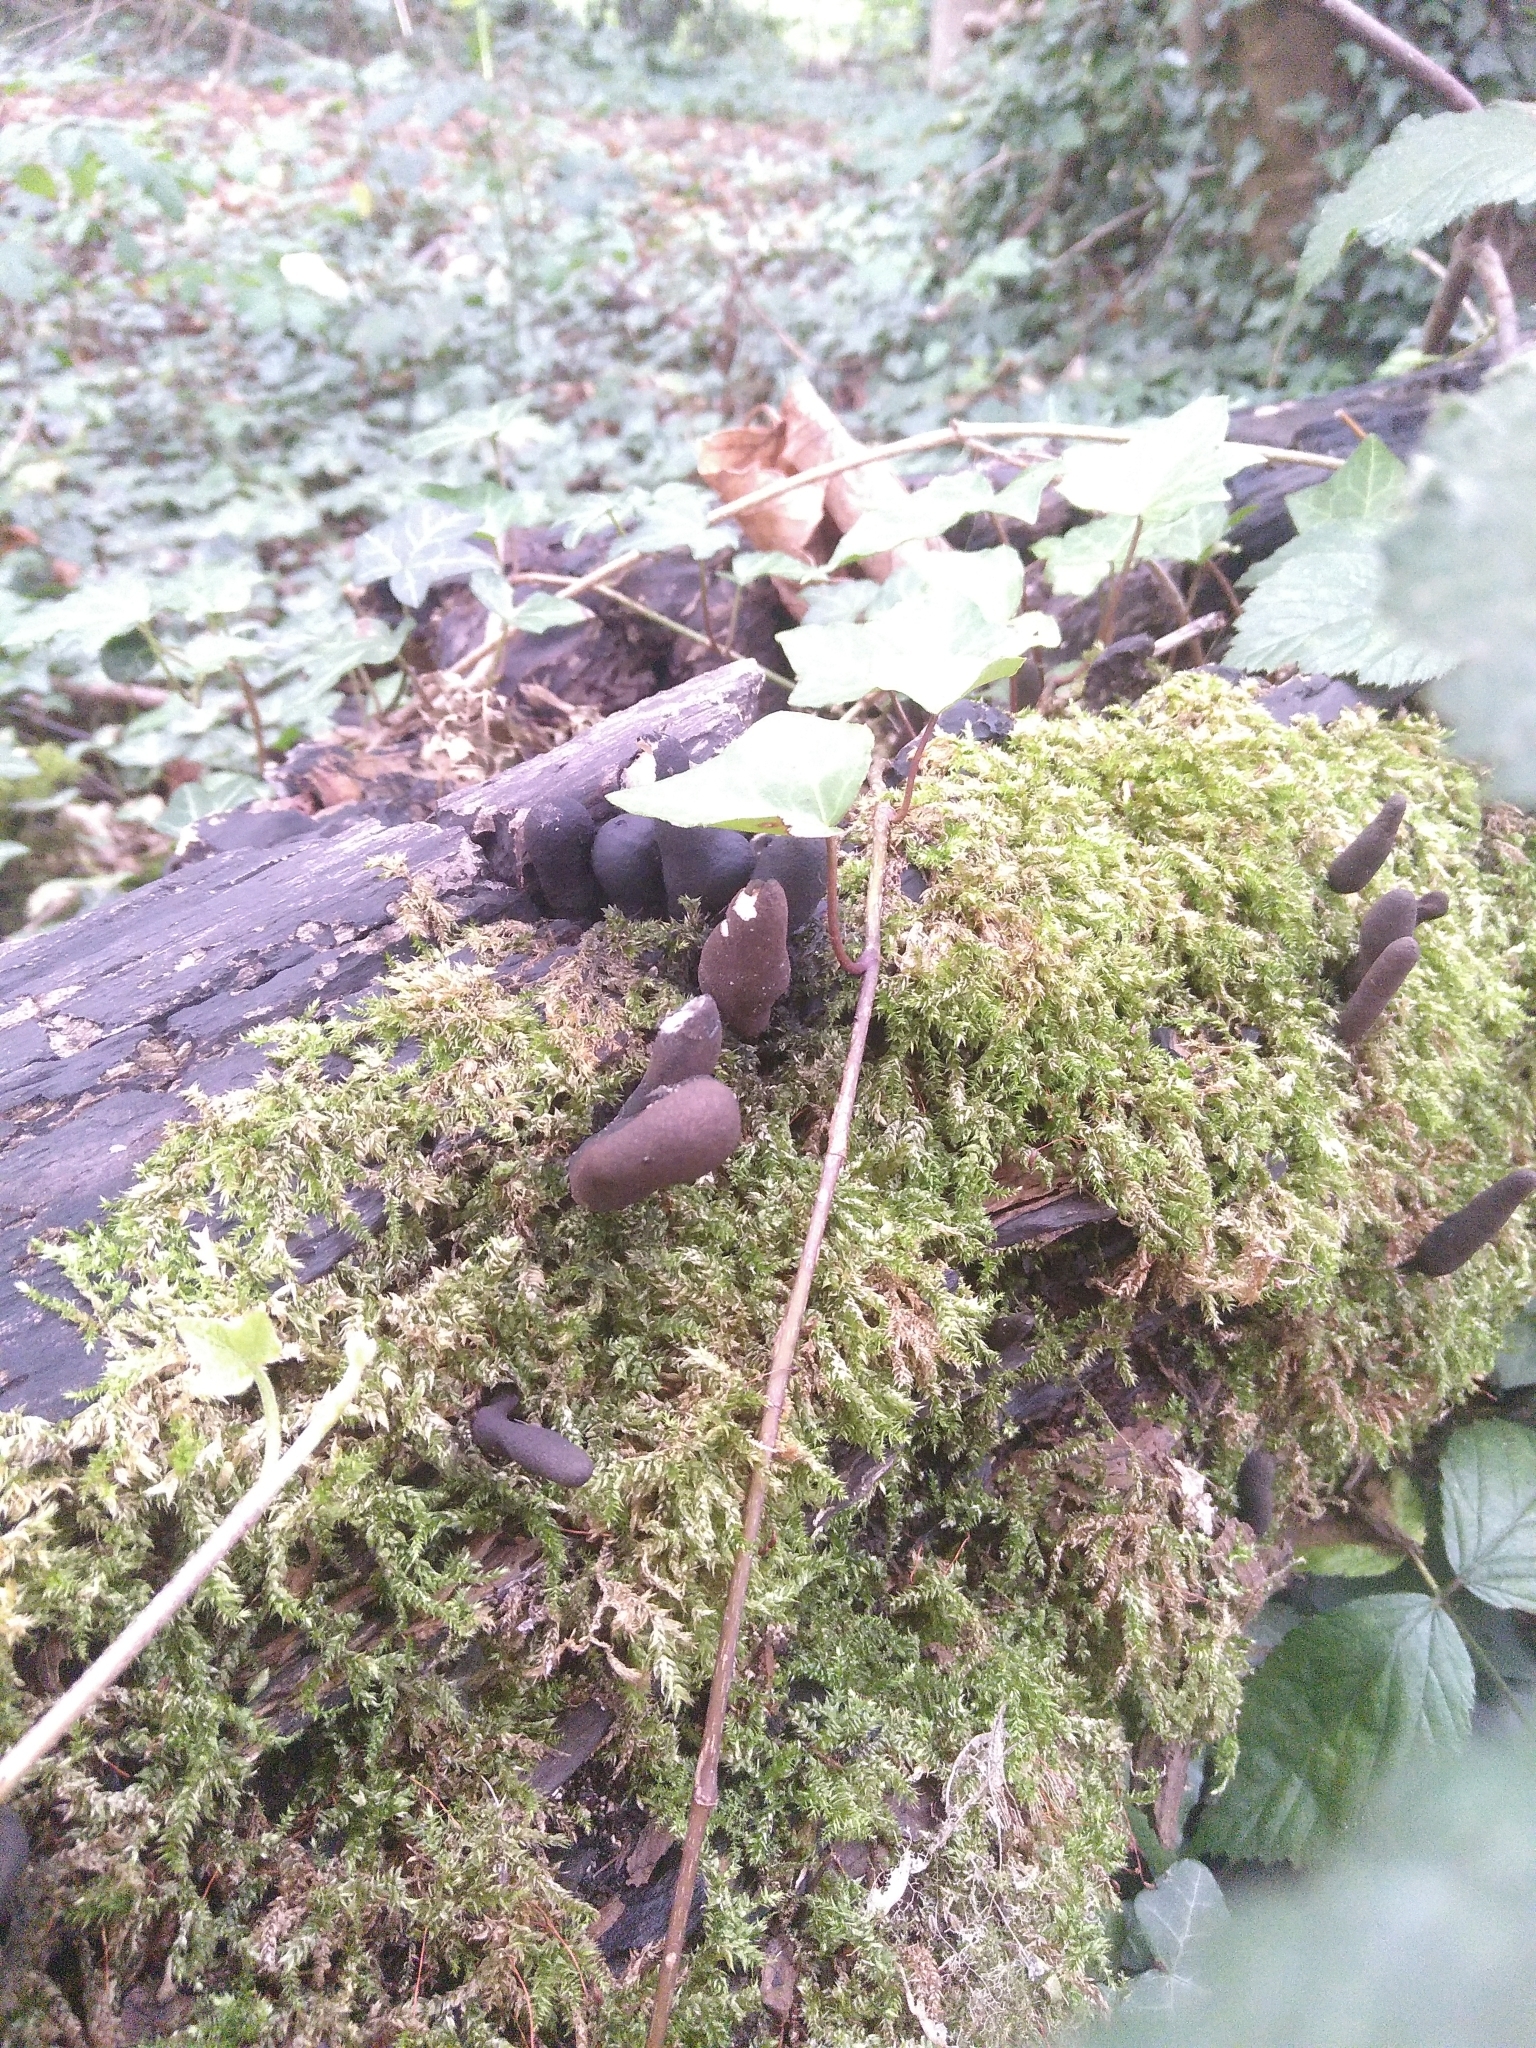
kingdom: Fungi
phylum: Ascomycota
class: Sordariomycetes
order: Xylariales
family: Xylariaceae
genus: Xylaria
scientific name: Xylaria polymorpha
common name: Dead man's fingers
